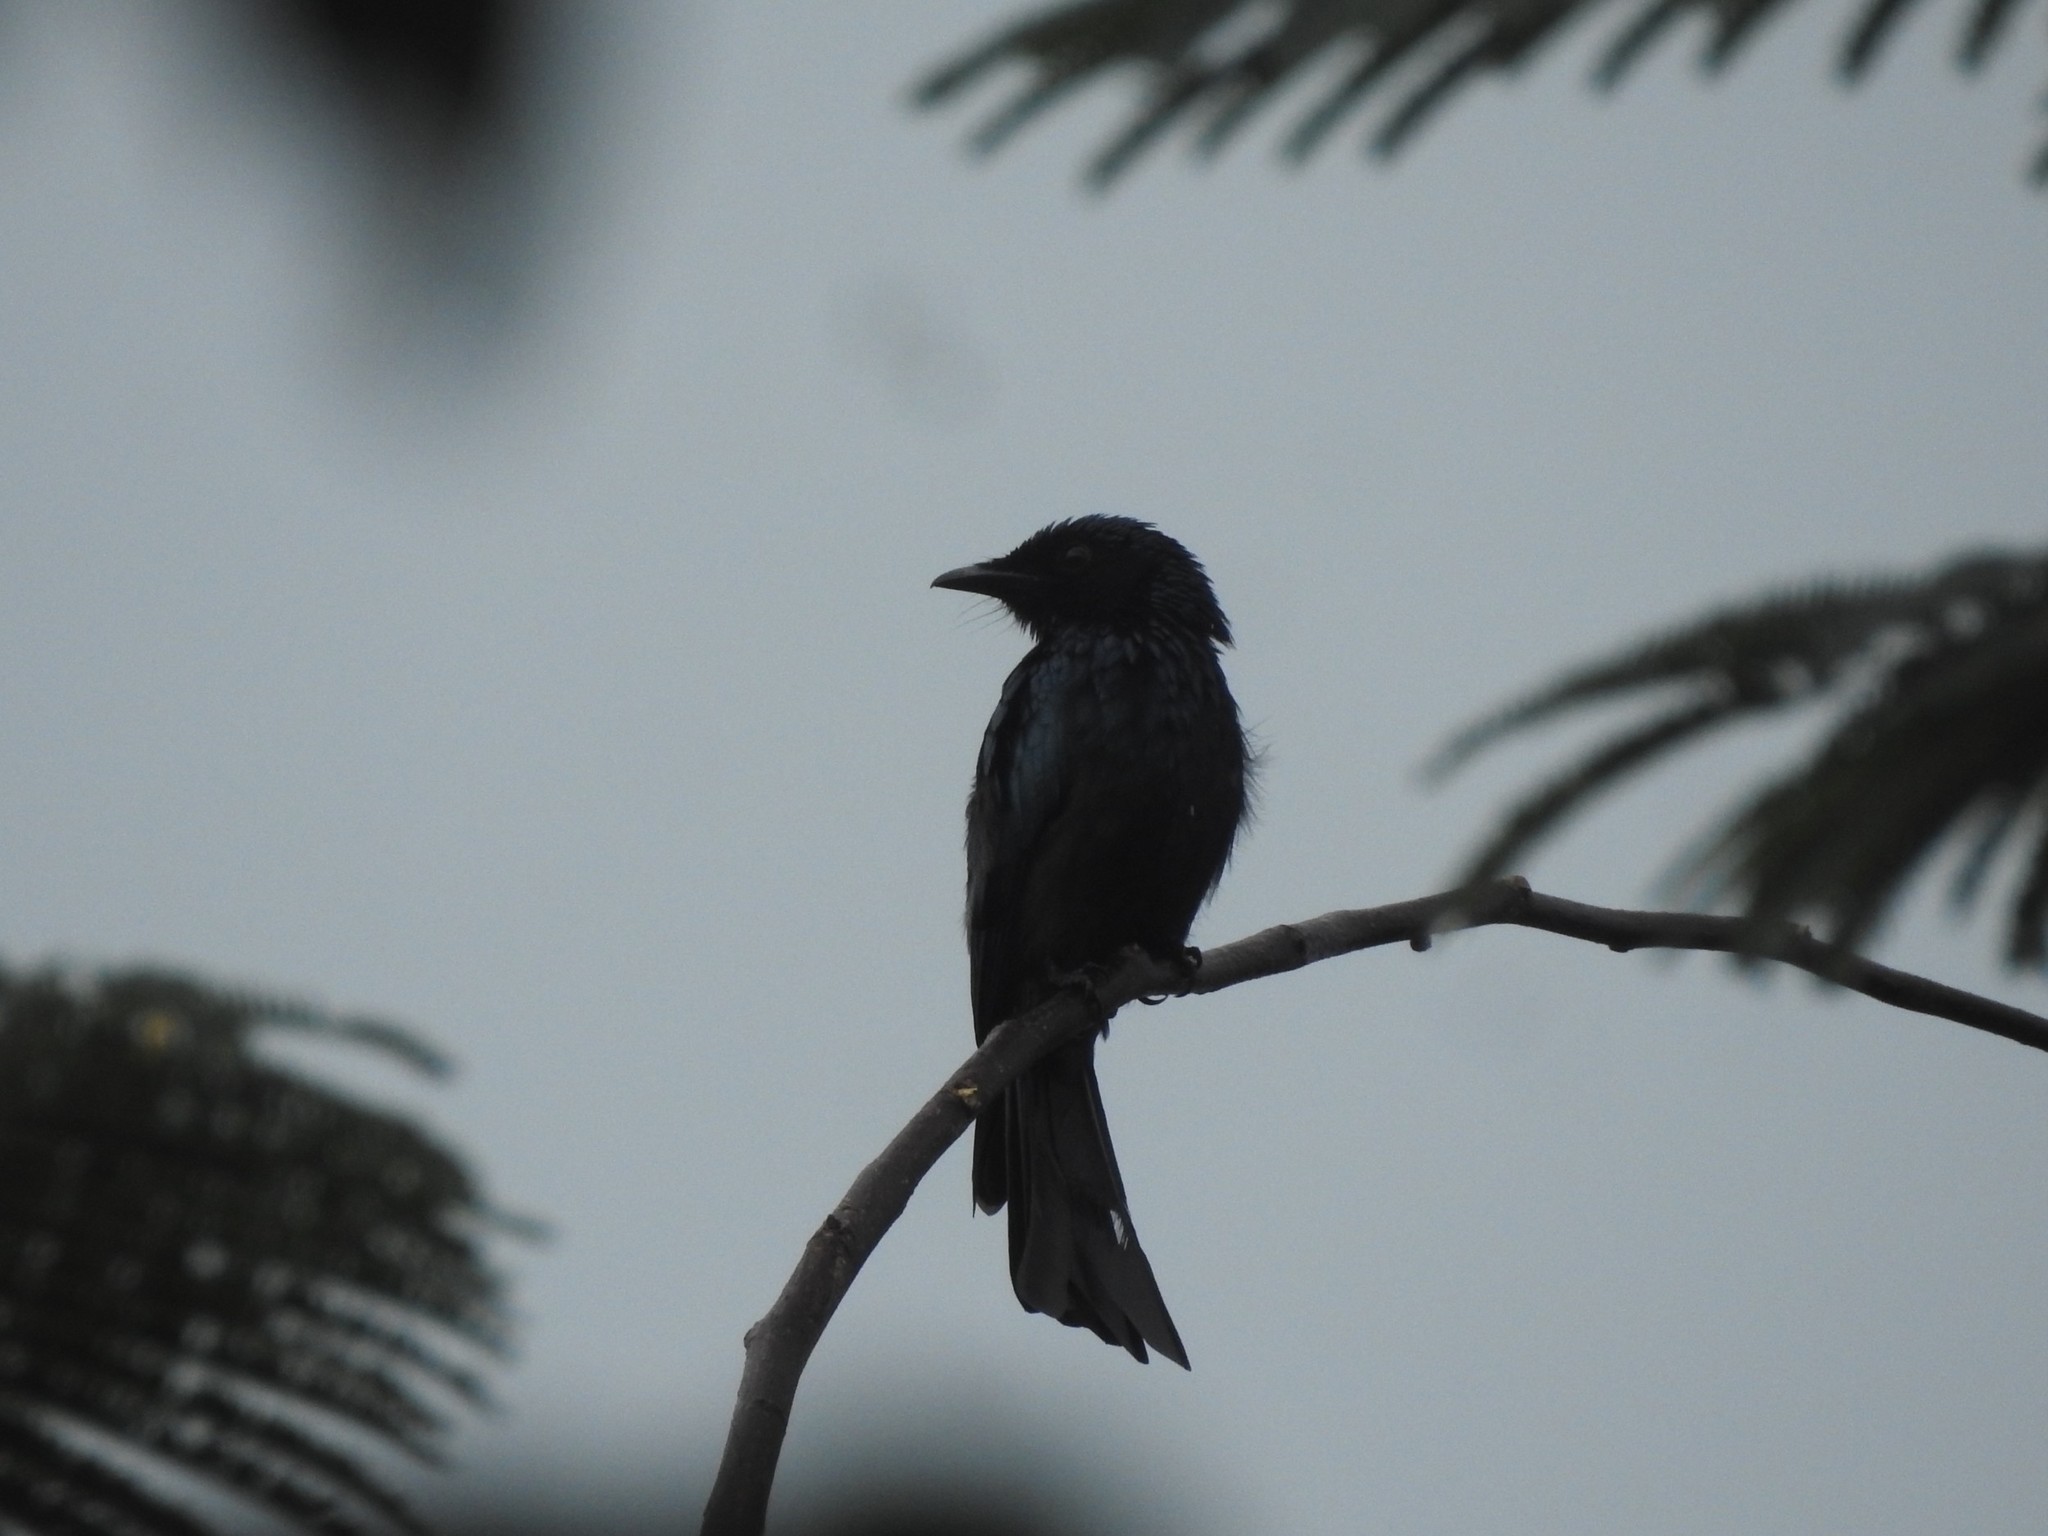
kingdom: Animalia
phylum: Chordata
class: Aves
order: Passeriformes
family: Dicruridae
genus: Dicrurus
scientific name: Dicrurus aeneus
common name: Bronzed drongo
